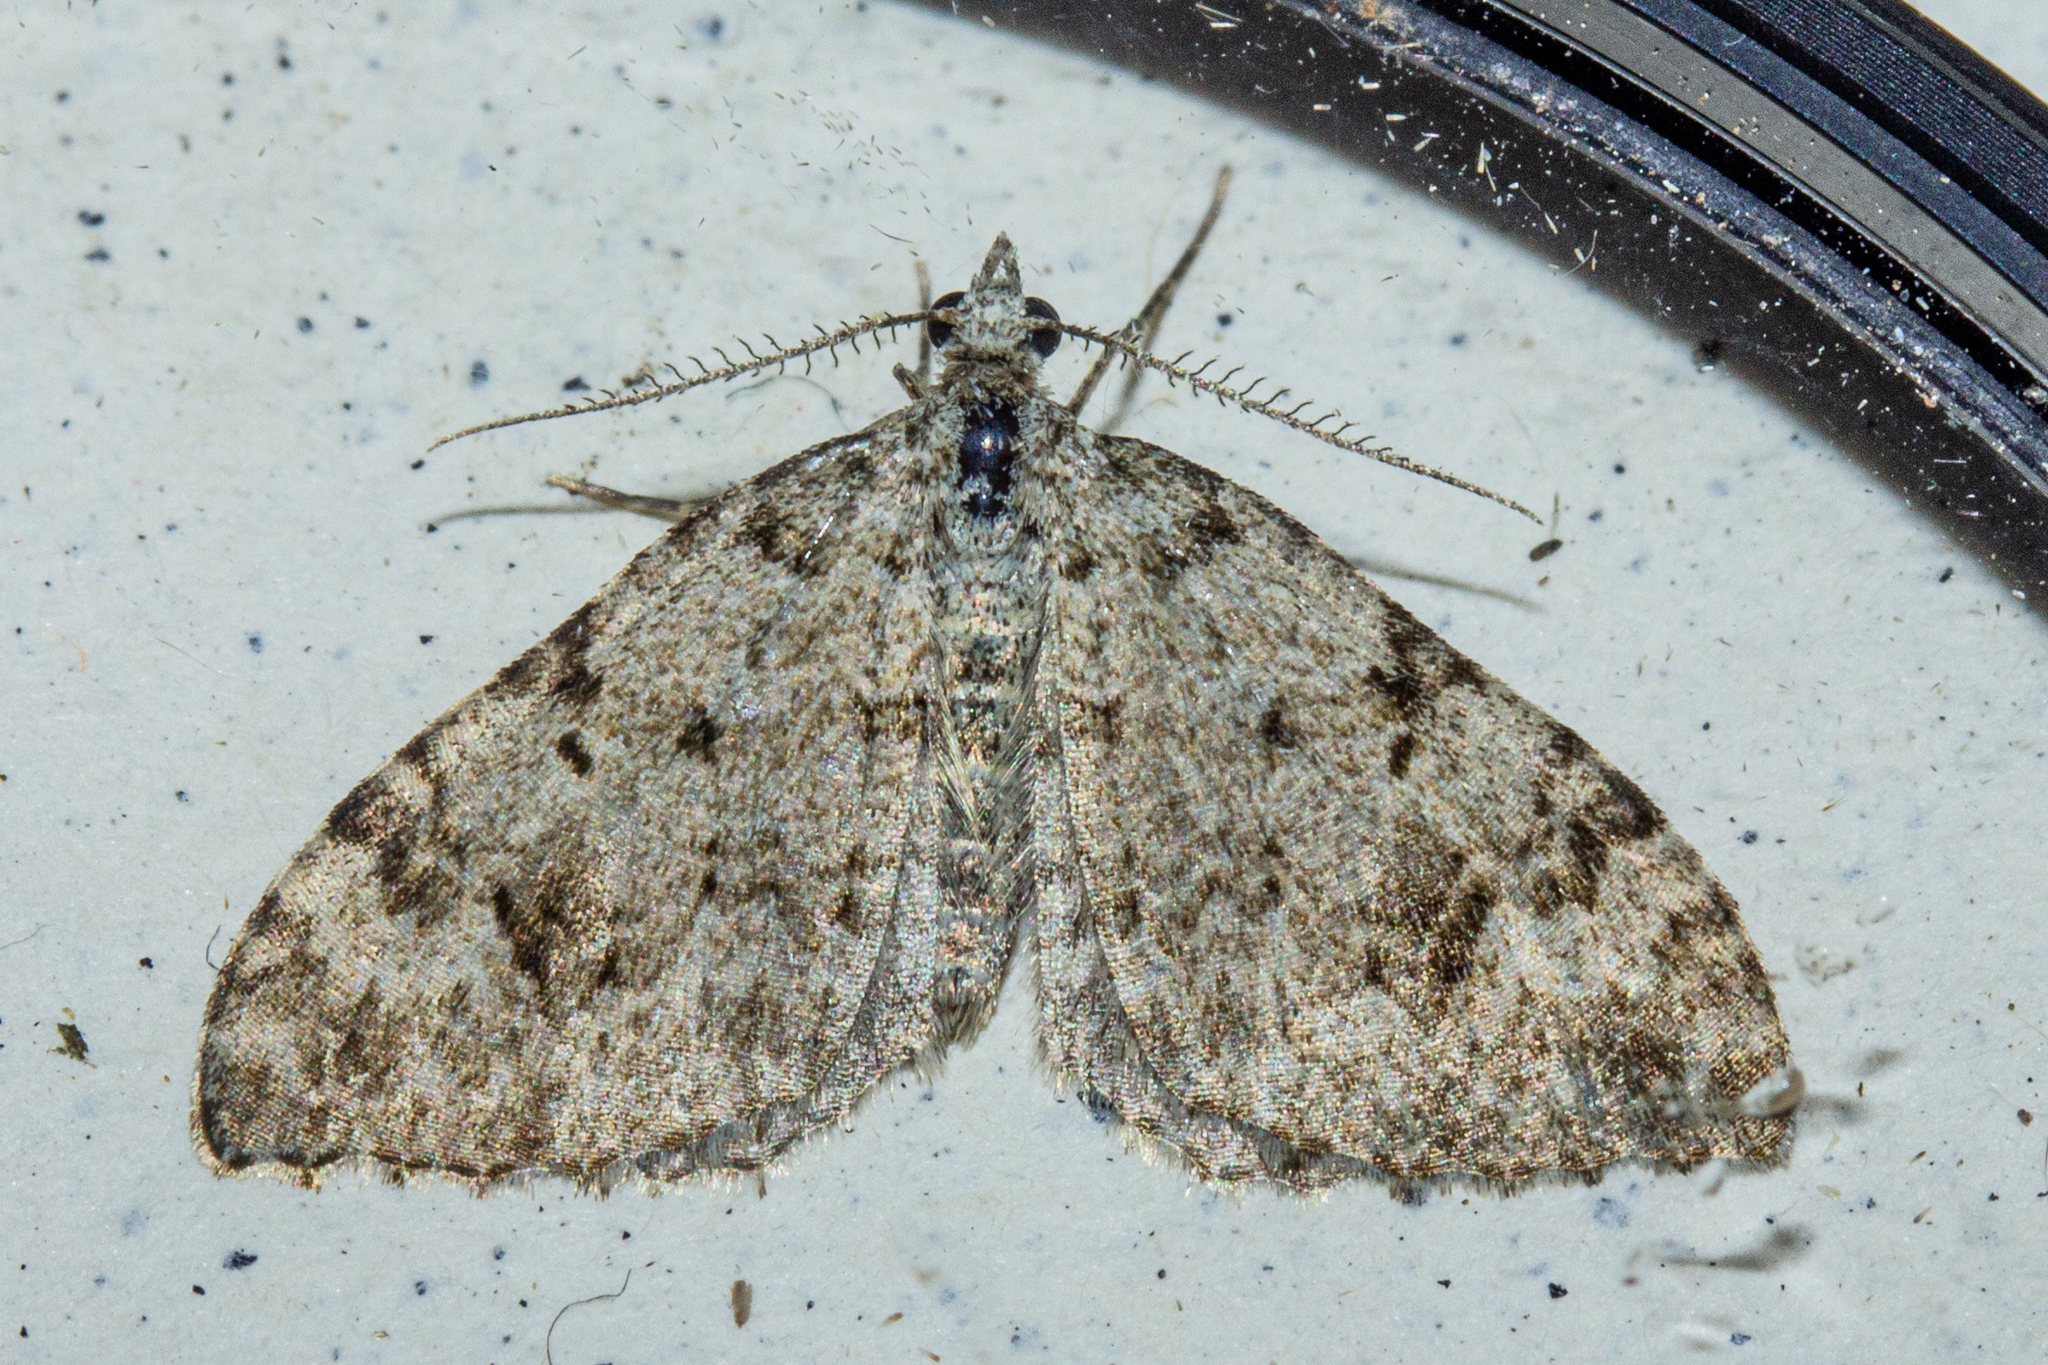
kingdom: Animalia
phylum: Arthropoda
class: Insecta
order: Lepidoptera
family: Geometridae
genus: Helastia
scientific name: Helastia cinerearia
